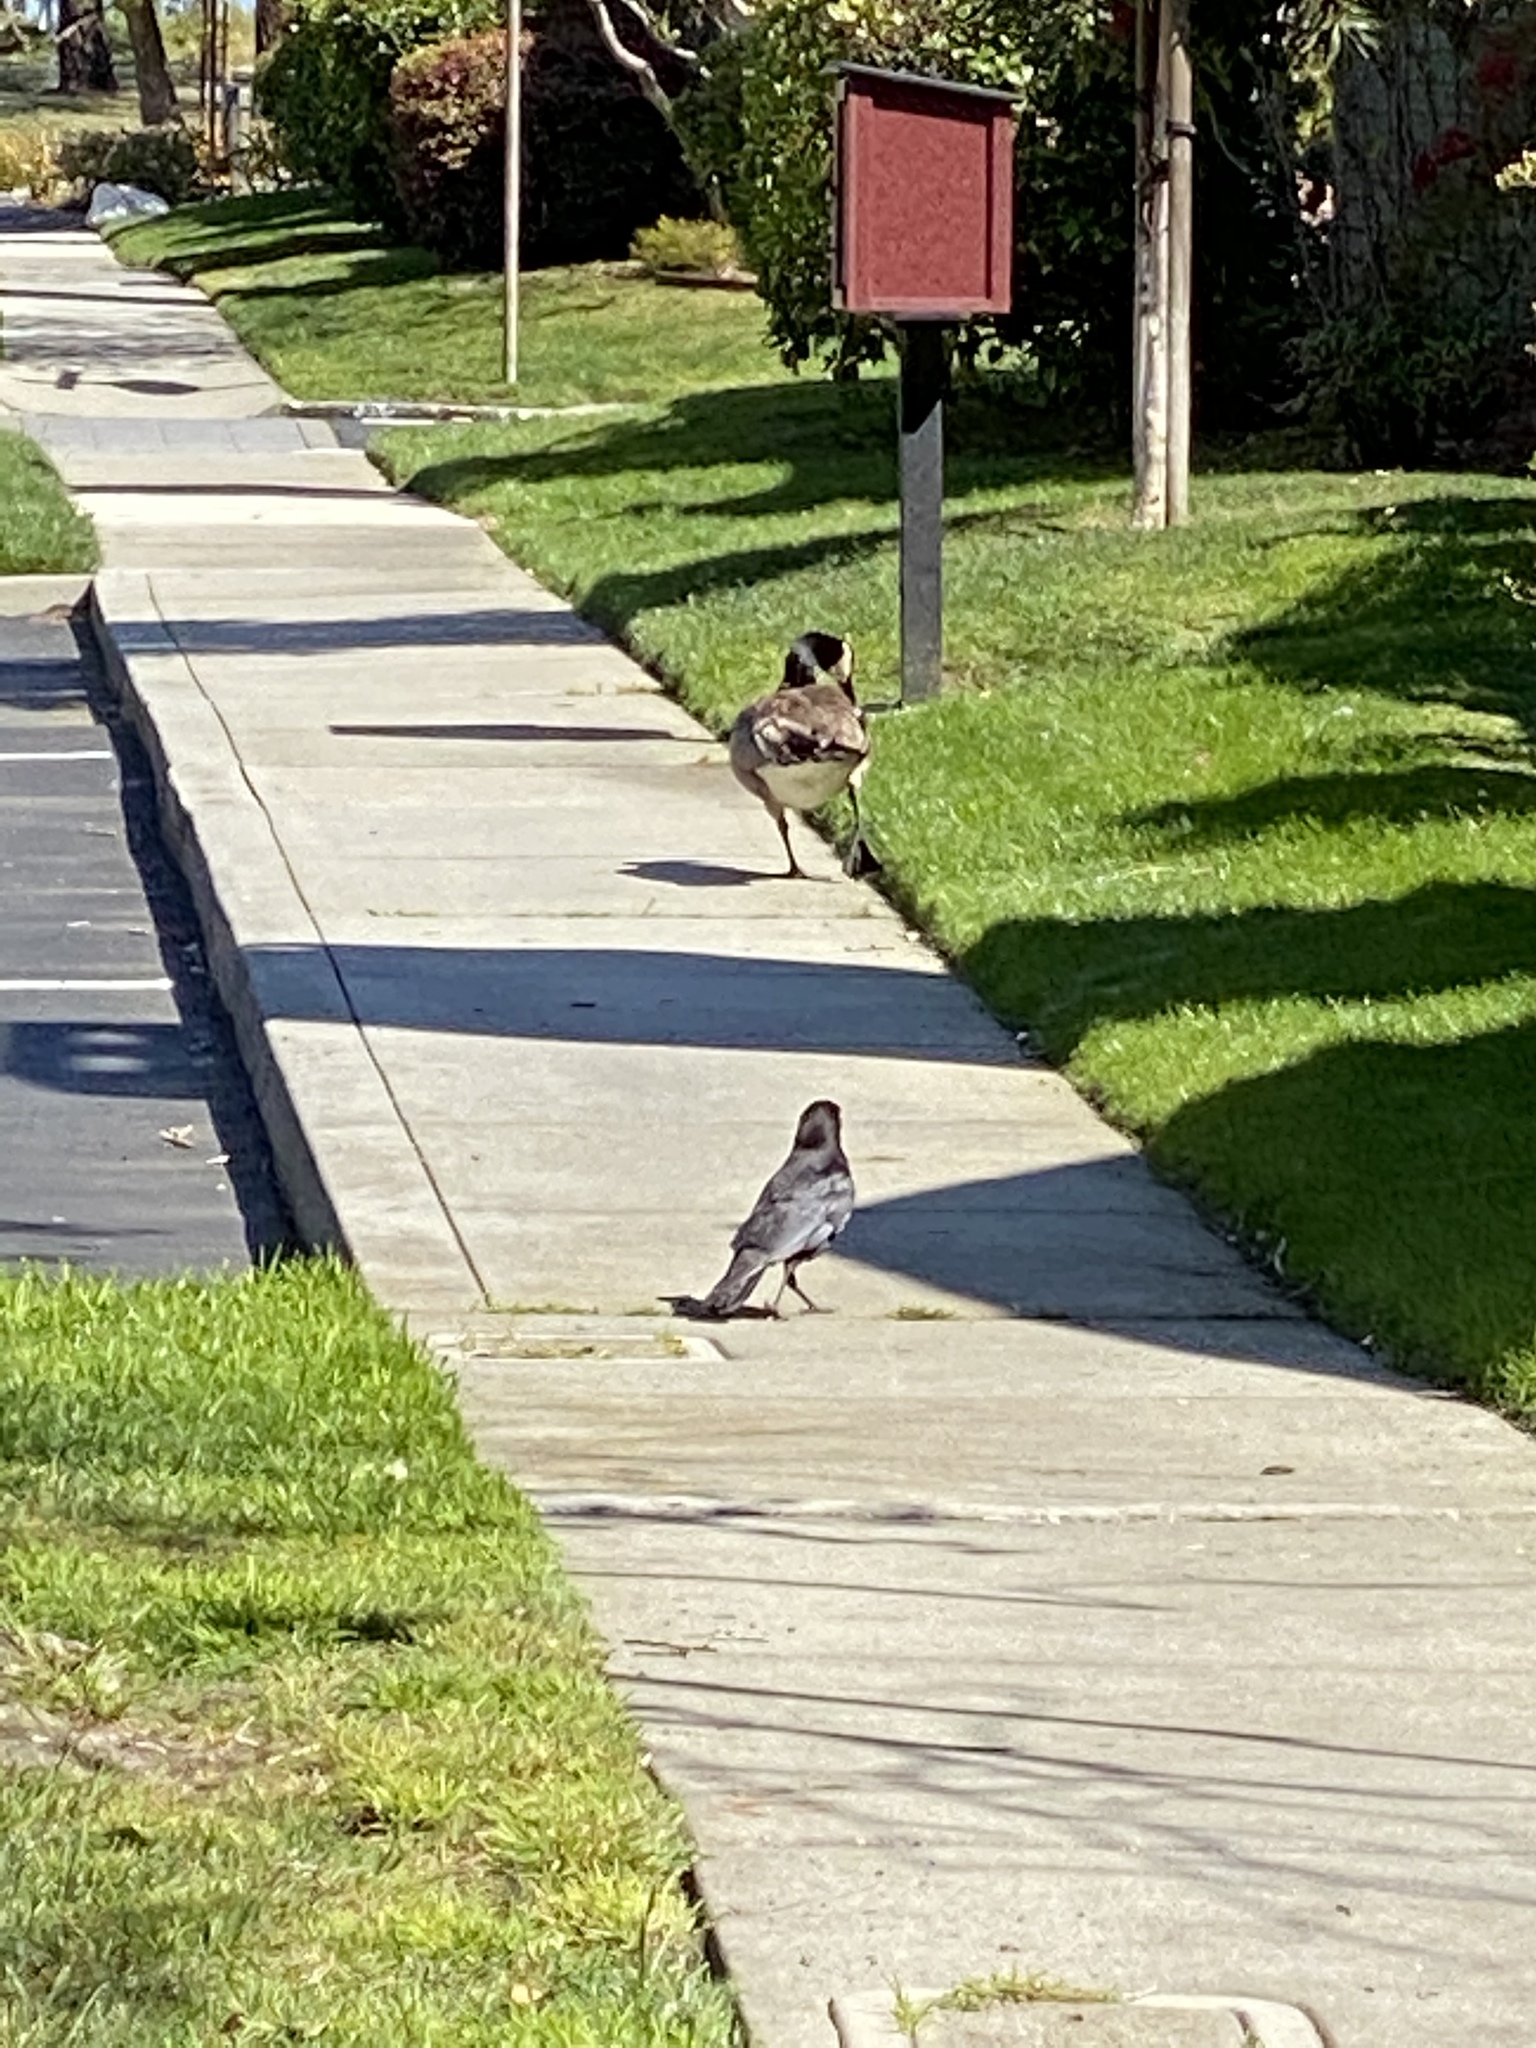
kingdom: Animalia
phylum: Chordata
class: Aves
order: Anseriformes
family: Anatidae
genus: Branta
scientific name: Branta canadensis
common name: Canada goose
